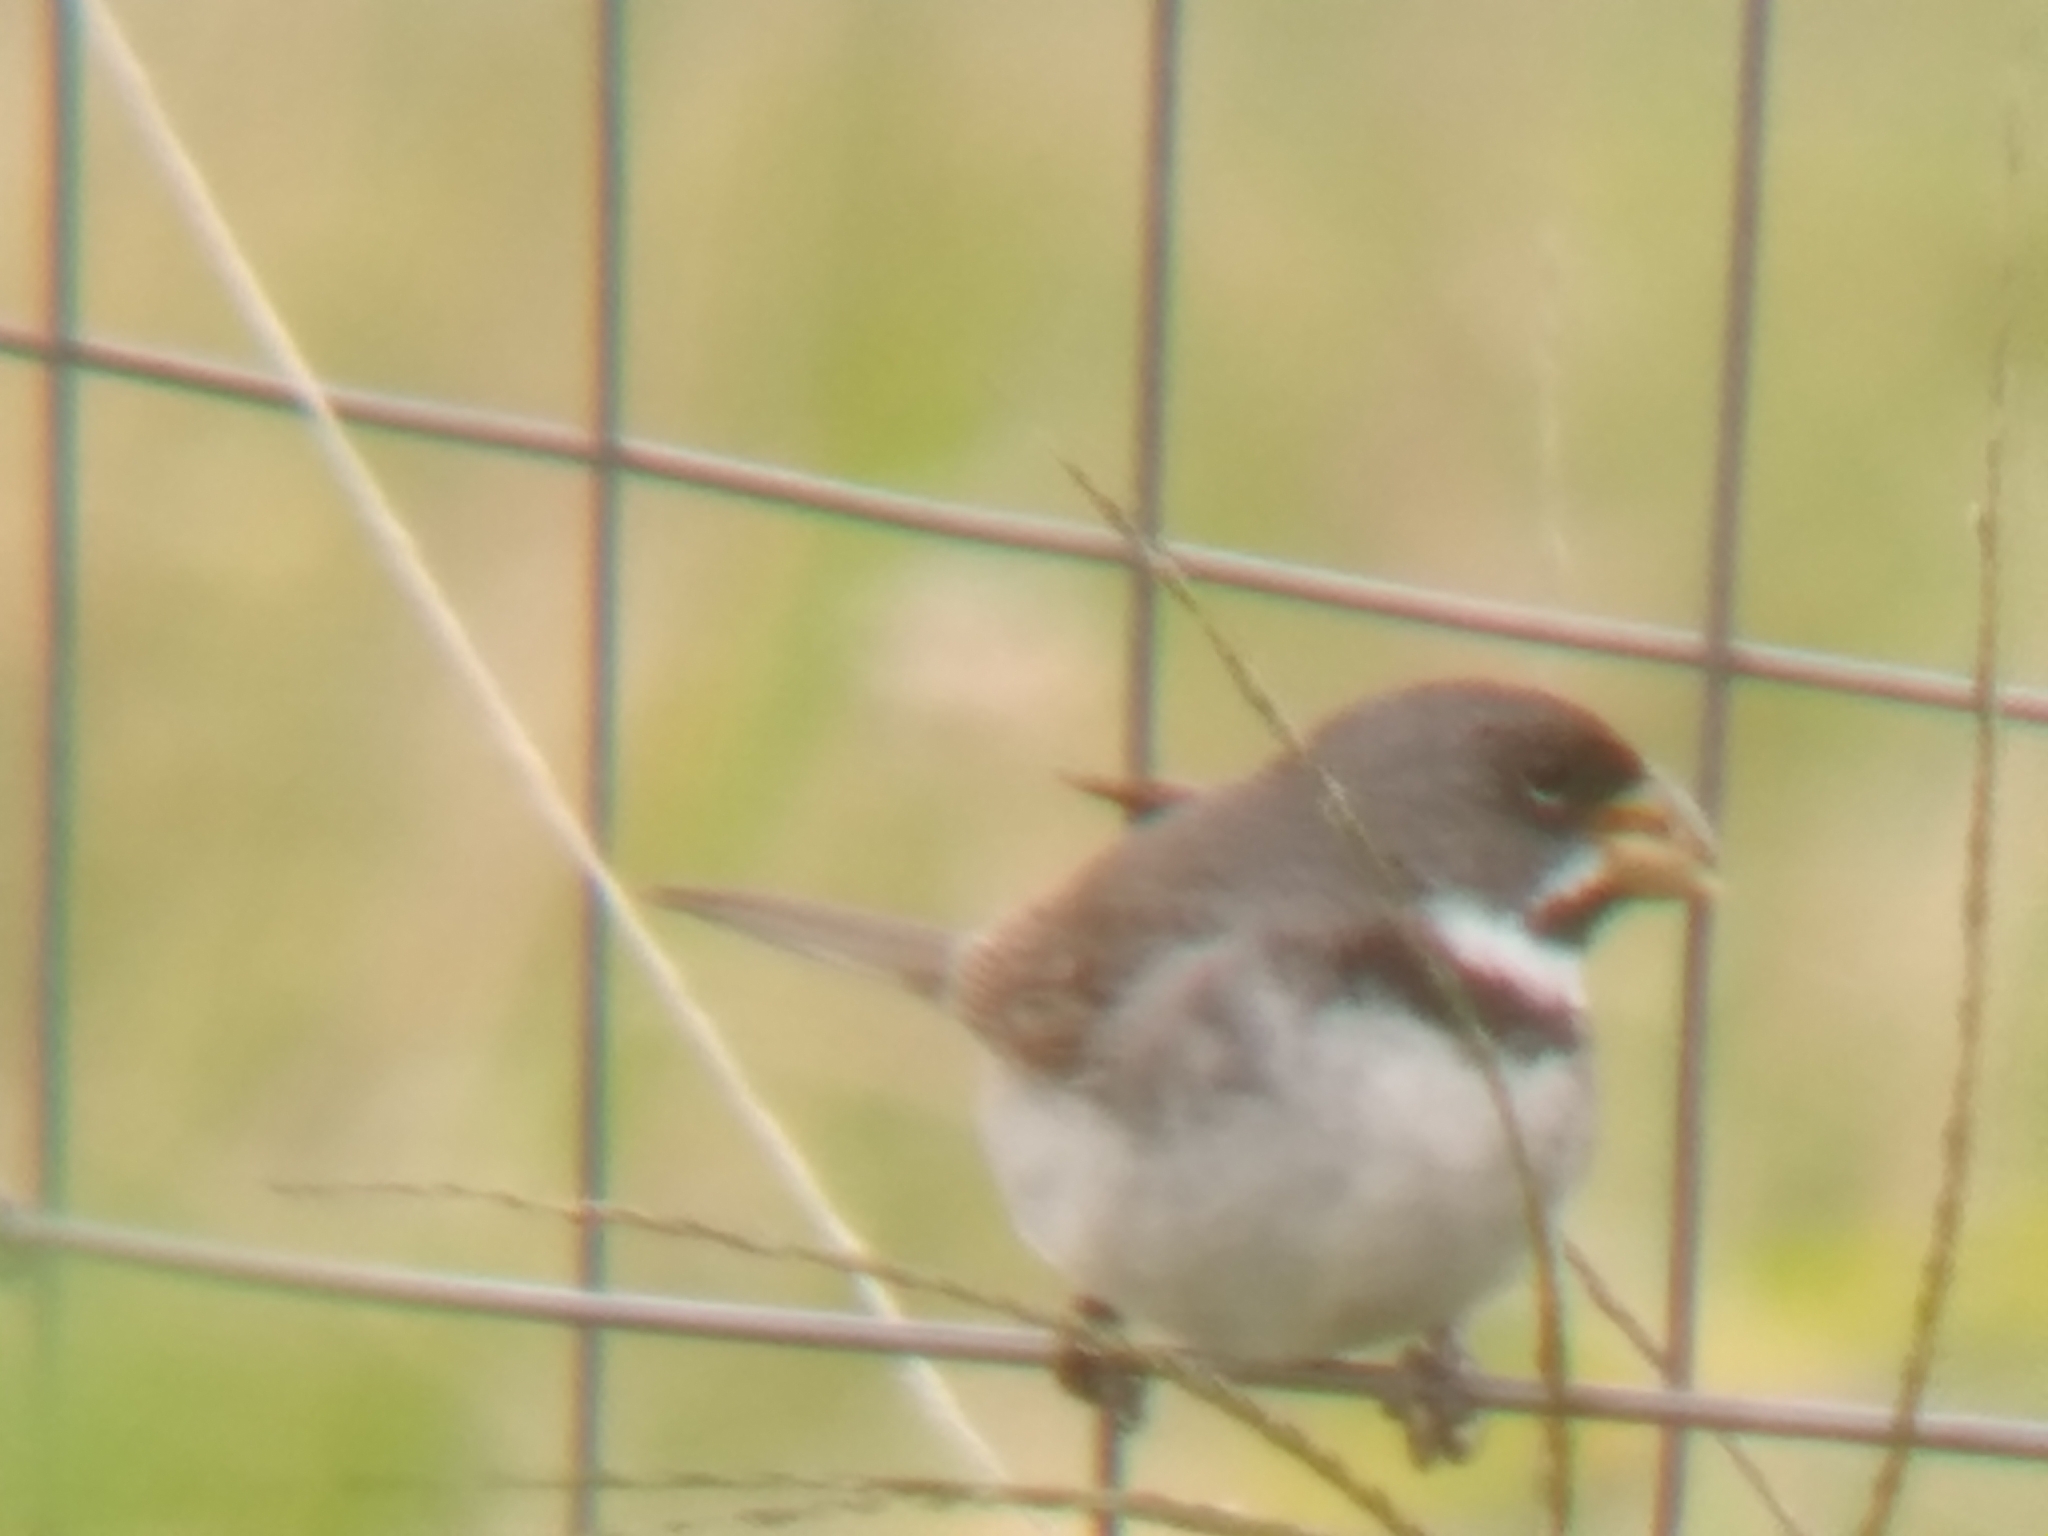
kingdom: Animalia
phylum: Chordata
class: Aves
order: Passeriformes
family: Thraupidae
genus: Sporophila
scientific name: Sporophila caerulescens
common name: Double-collared seedeater
